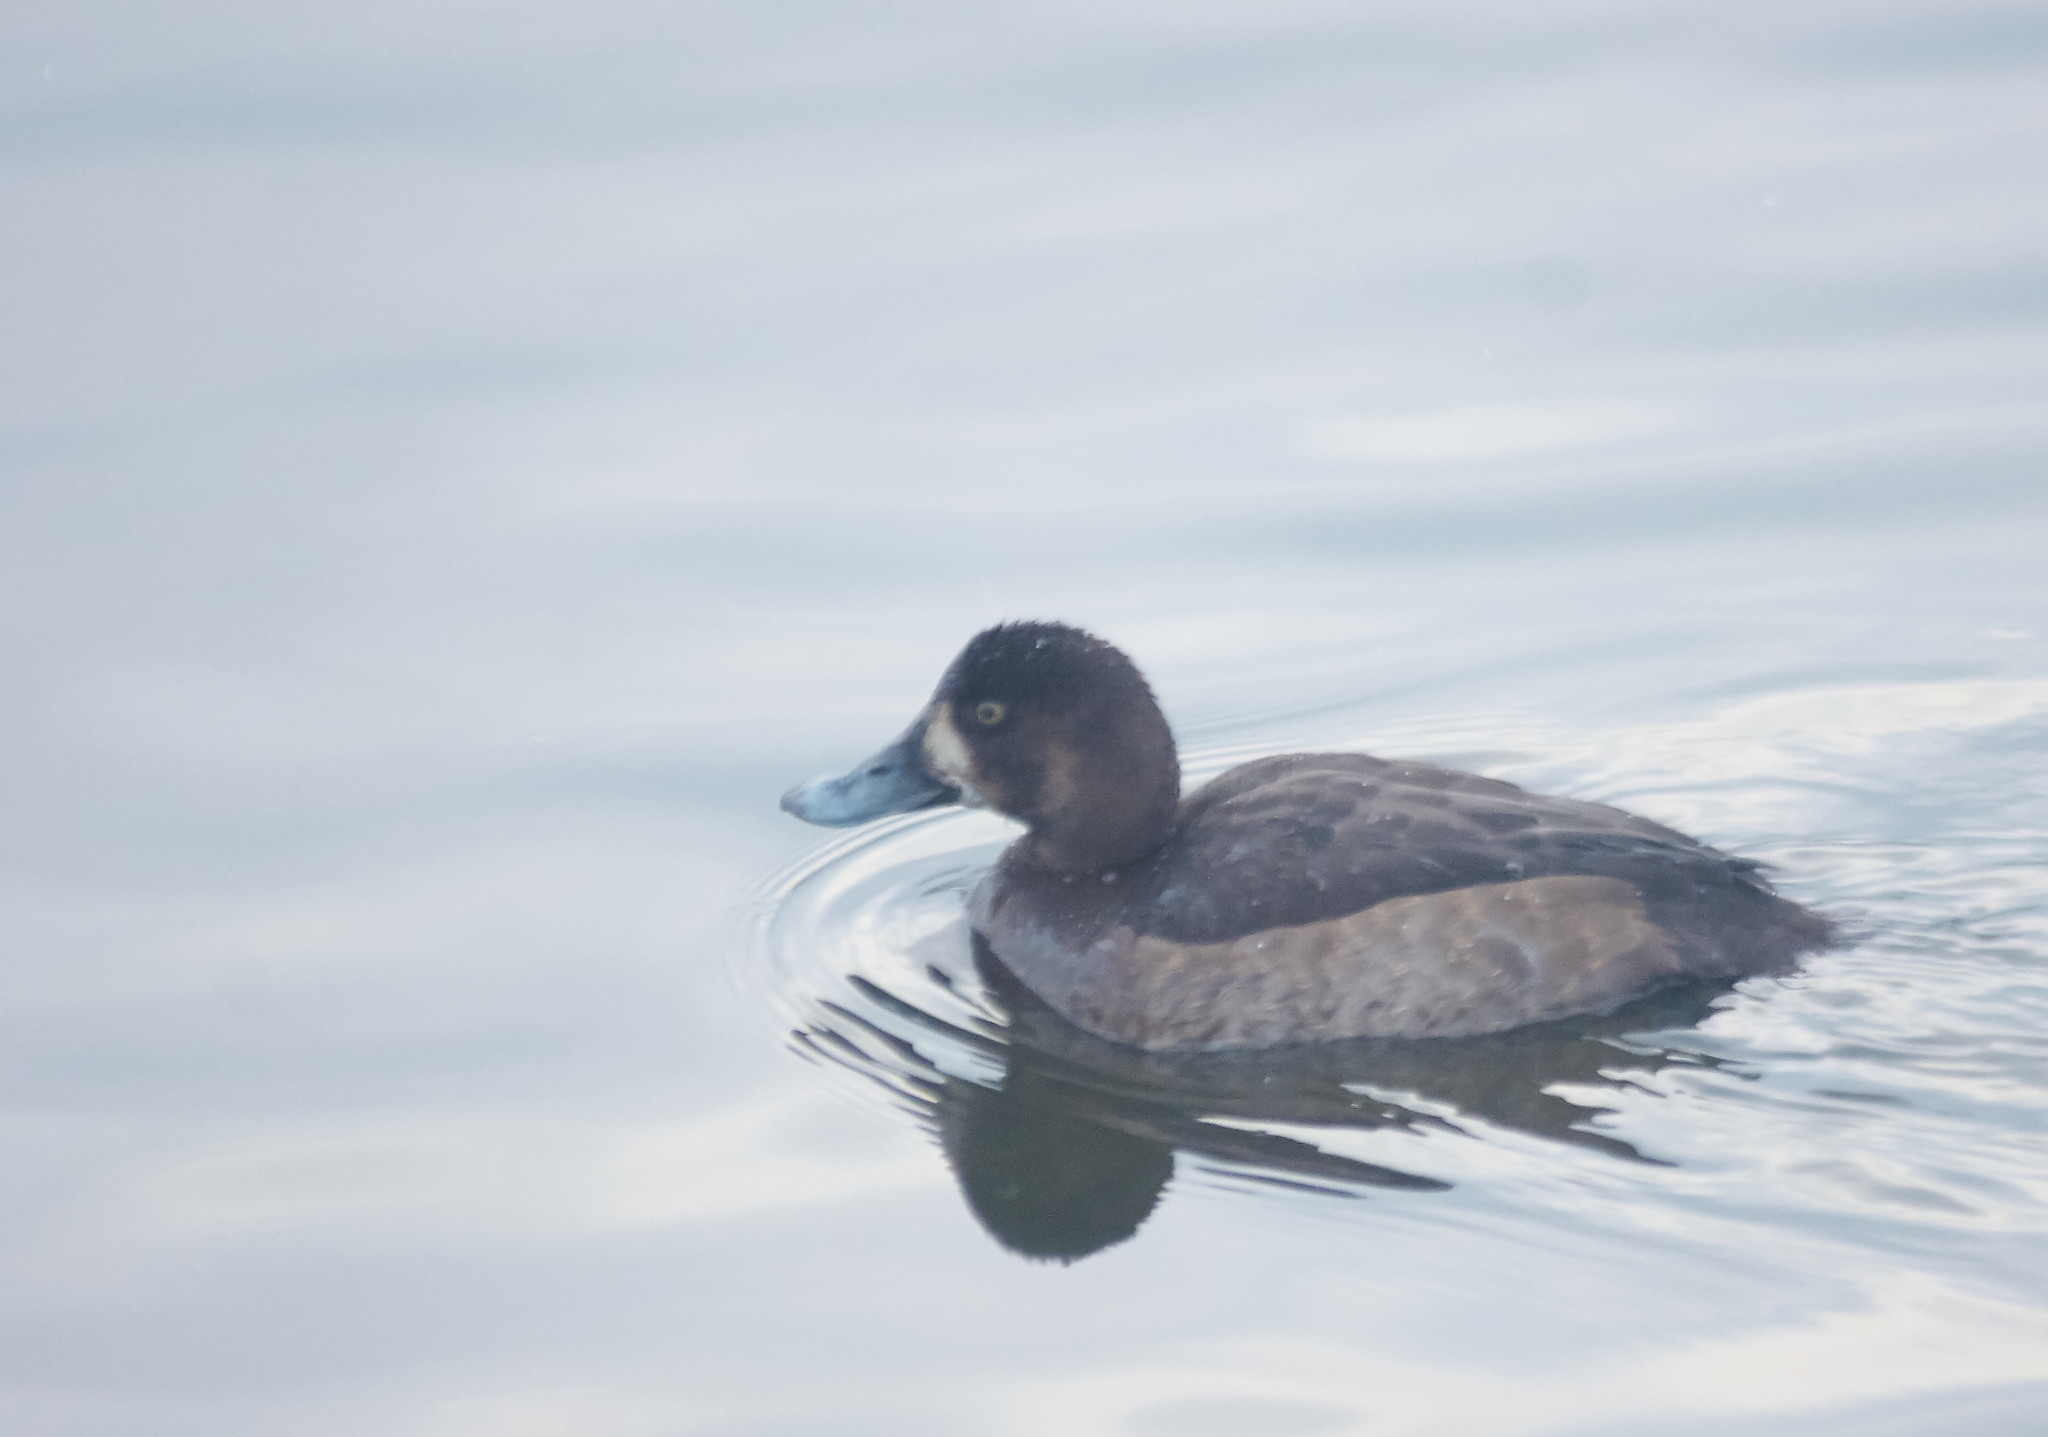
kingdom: Animalia
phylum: Chordata
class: Aves
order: Anseriformes
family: Anatidae
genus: Aythya
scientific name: Aythya marila
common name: Greater scaup
